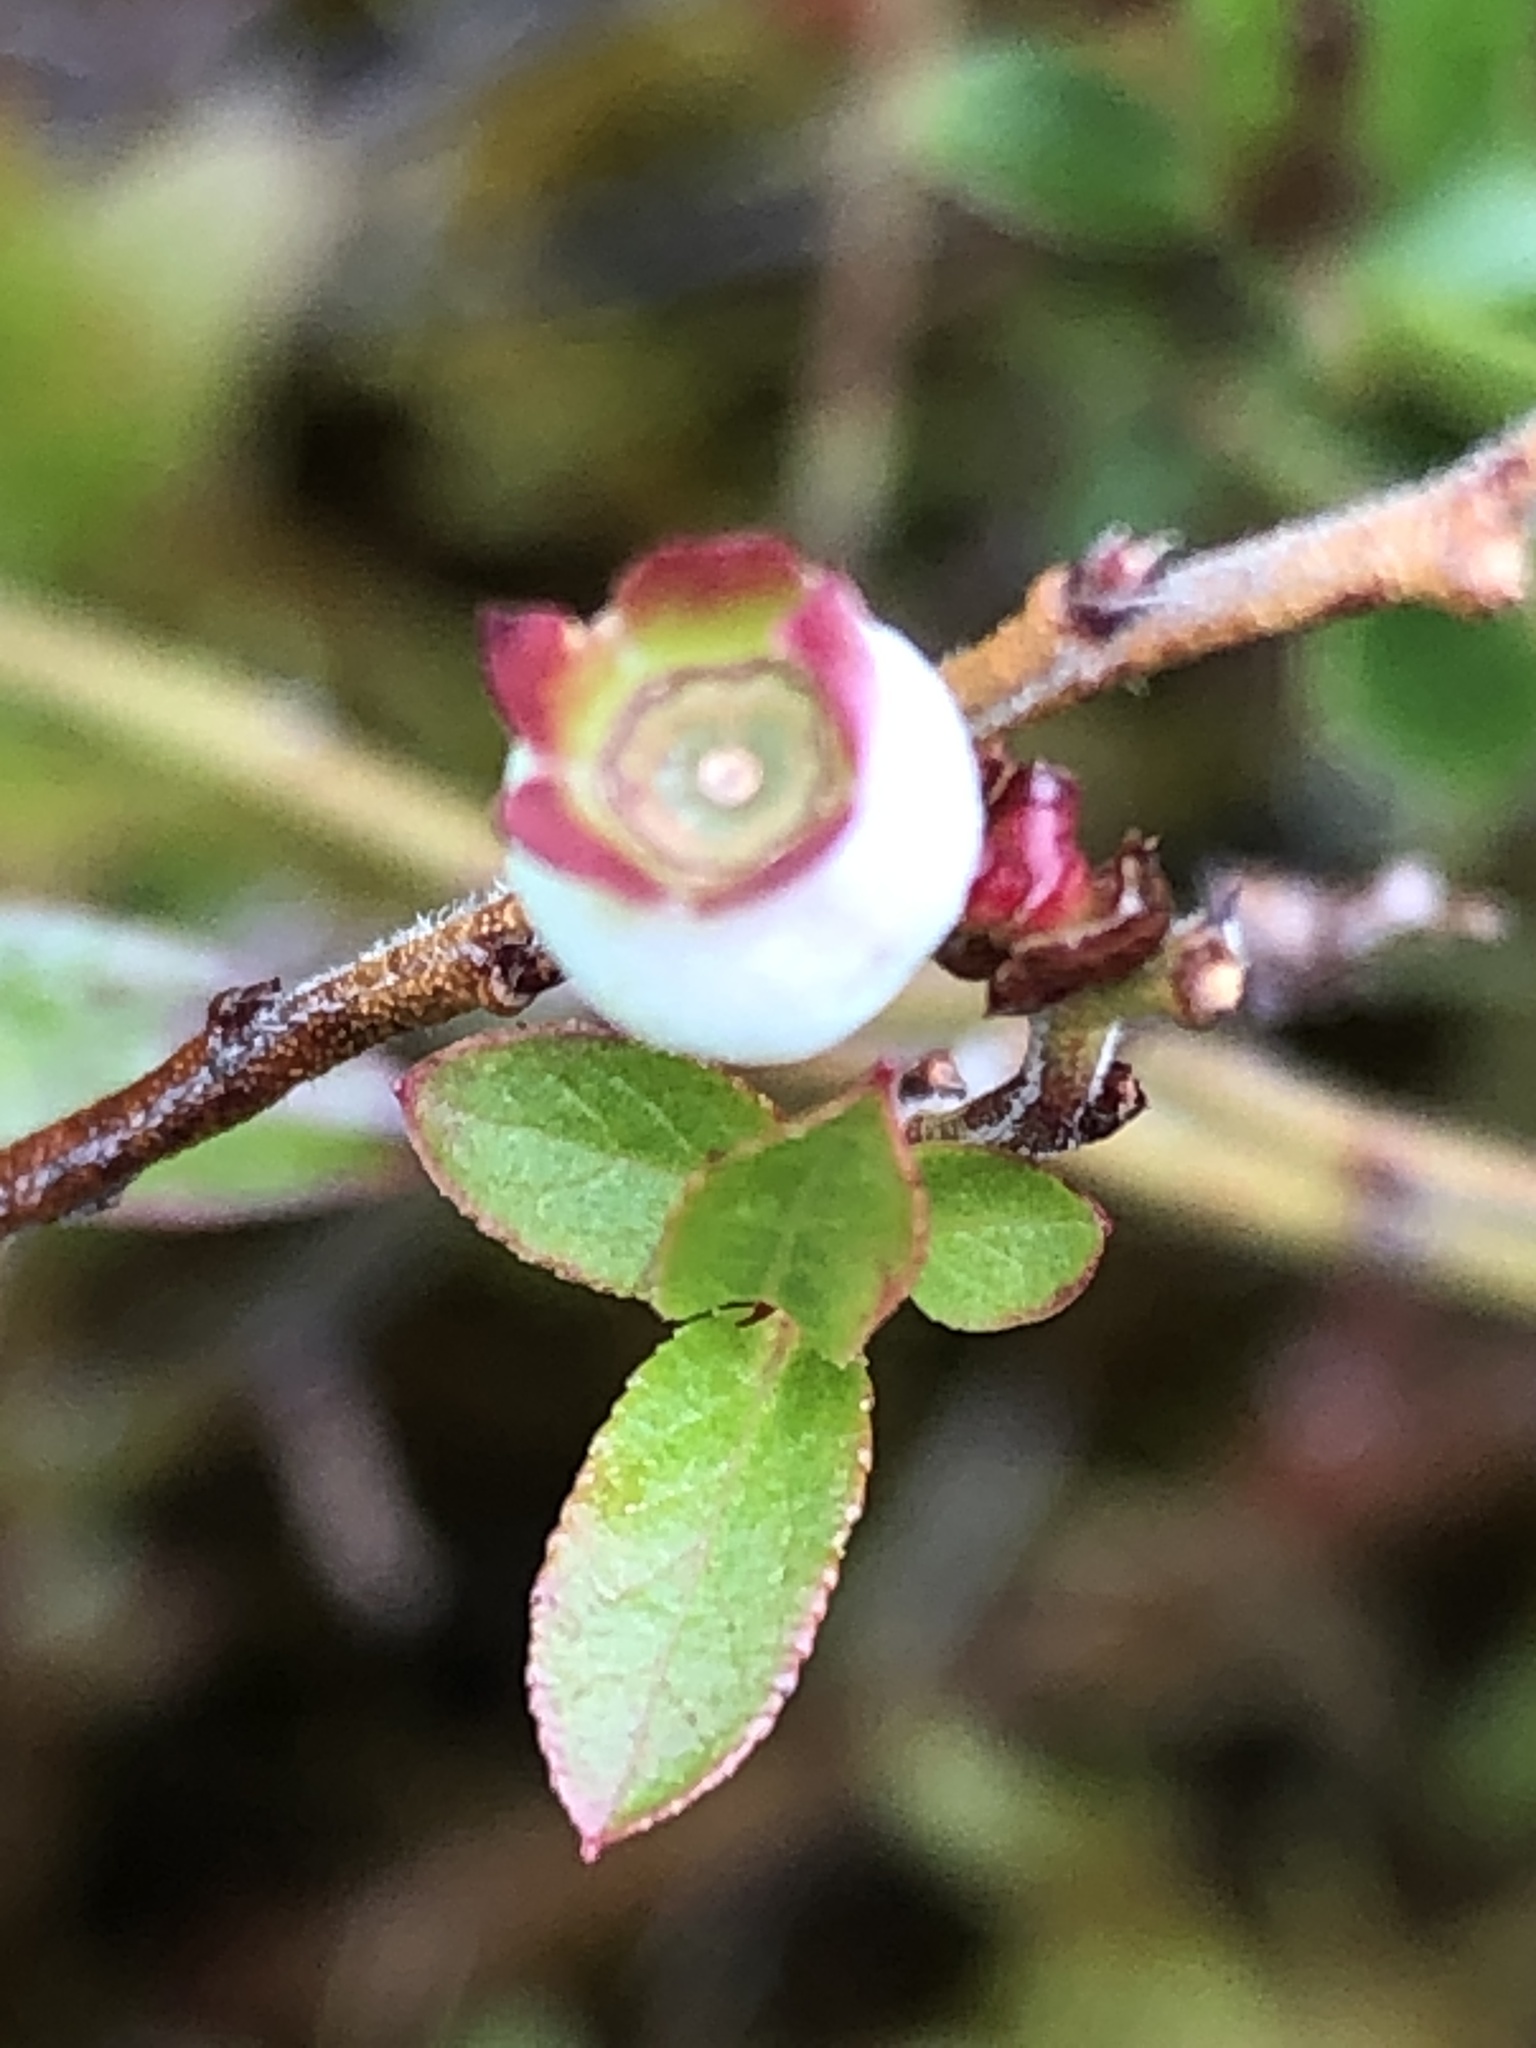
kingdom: Plantae
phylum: Tracheophyta
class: Magnoliopsida
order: Ericales
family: Ericaceae
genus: Vaccinium
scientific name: Vaccinium angustifolium
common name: Early lowbush blueberry
